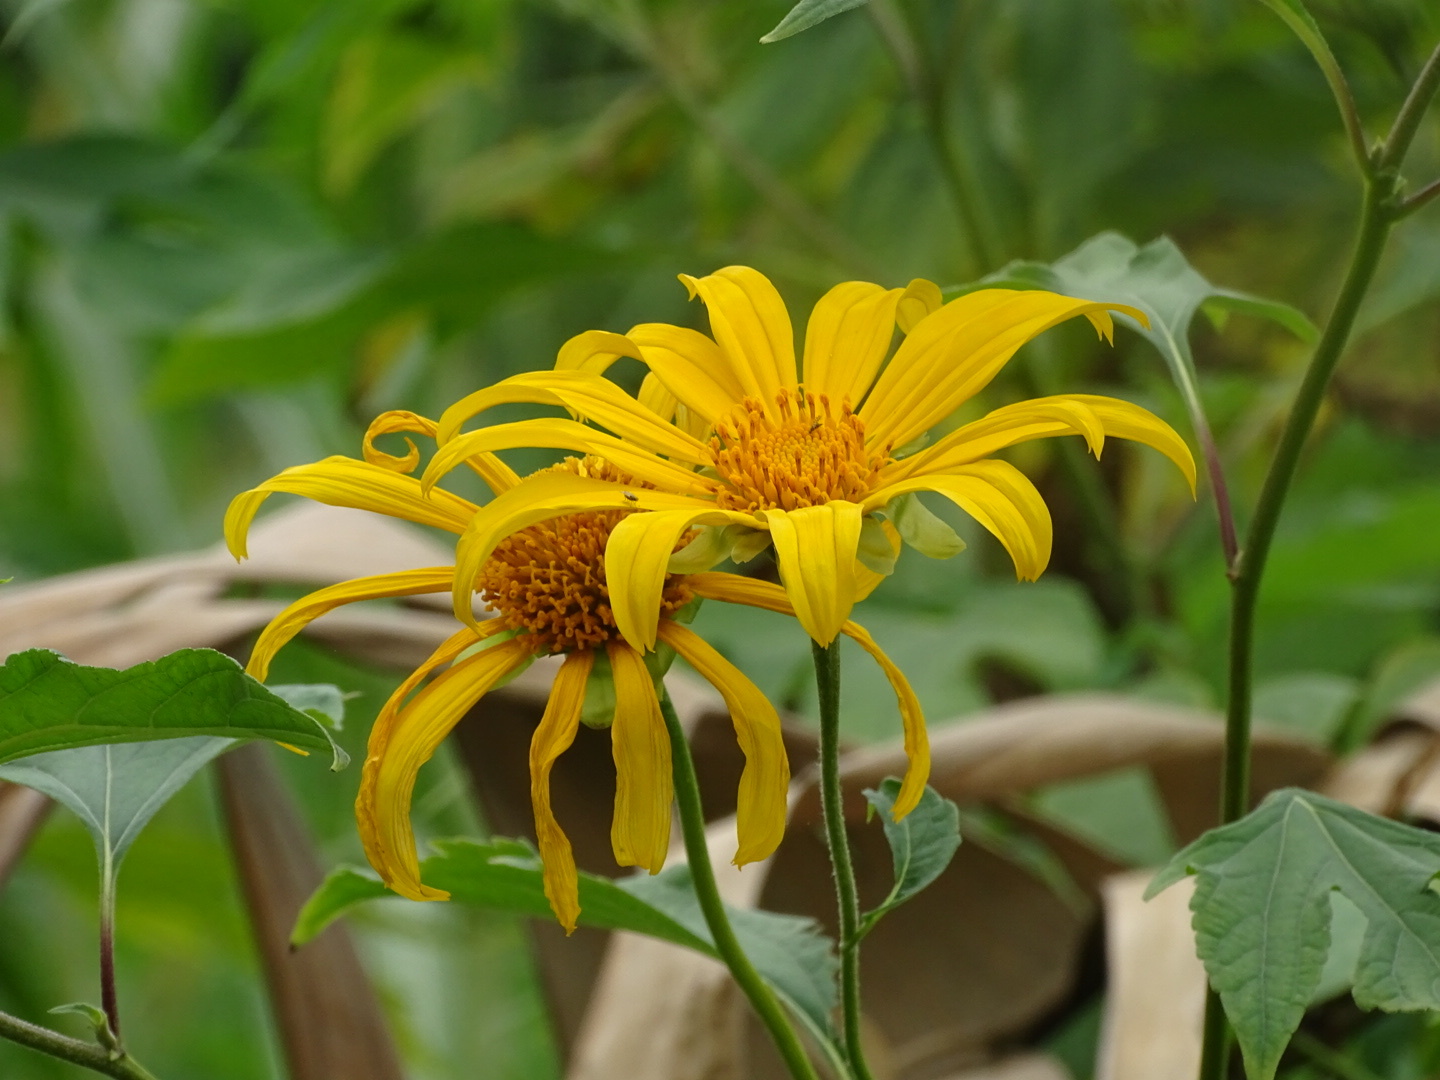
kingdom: Plantae
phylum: Tracheophyta
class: Magnoliopsida
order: Asterales
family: Asteraceae
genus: Tithonia
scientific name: Tithonia diversifolia
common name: Tree marigold
